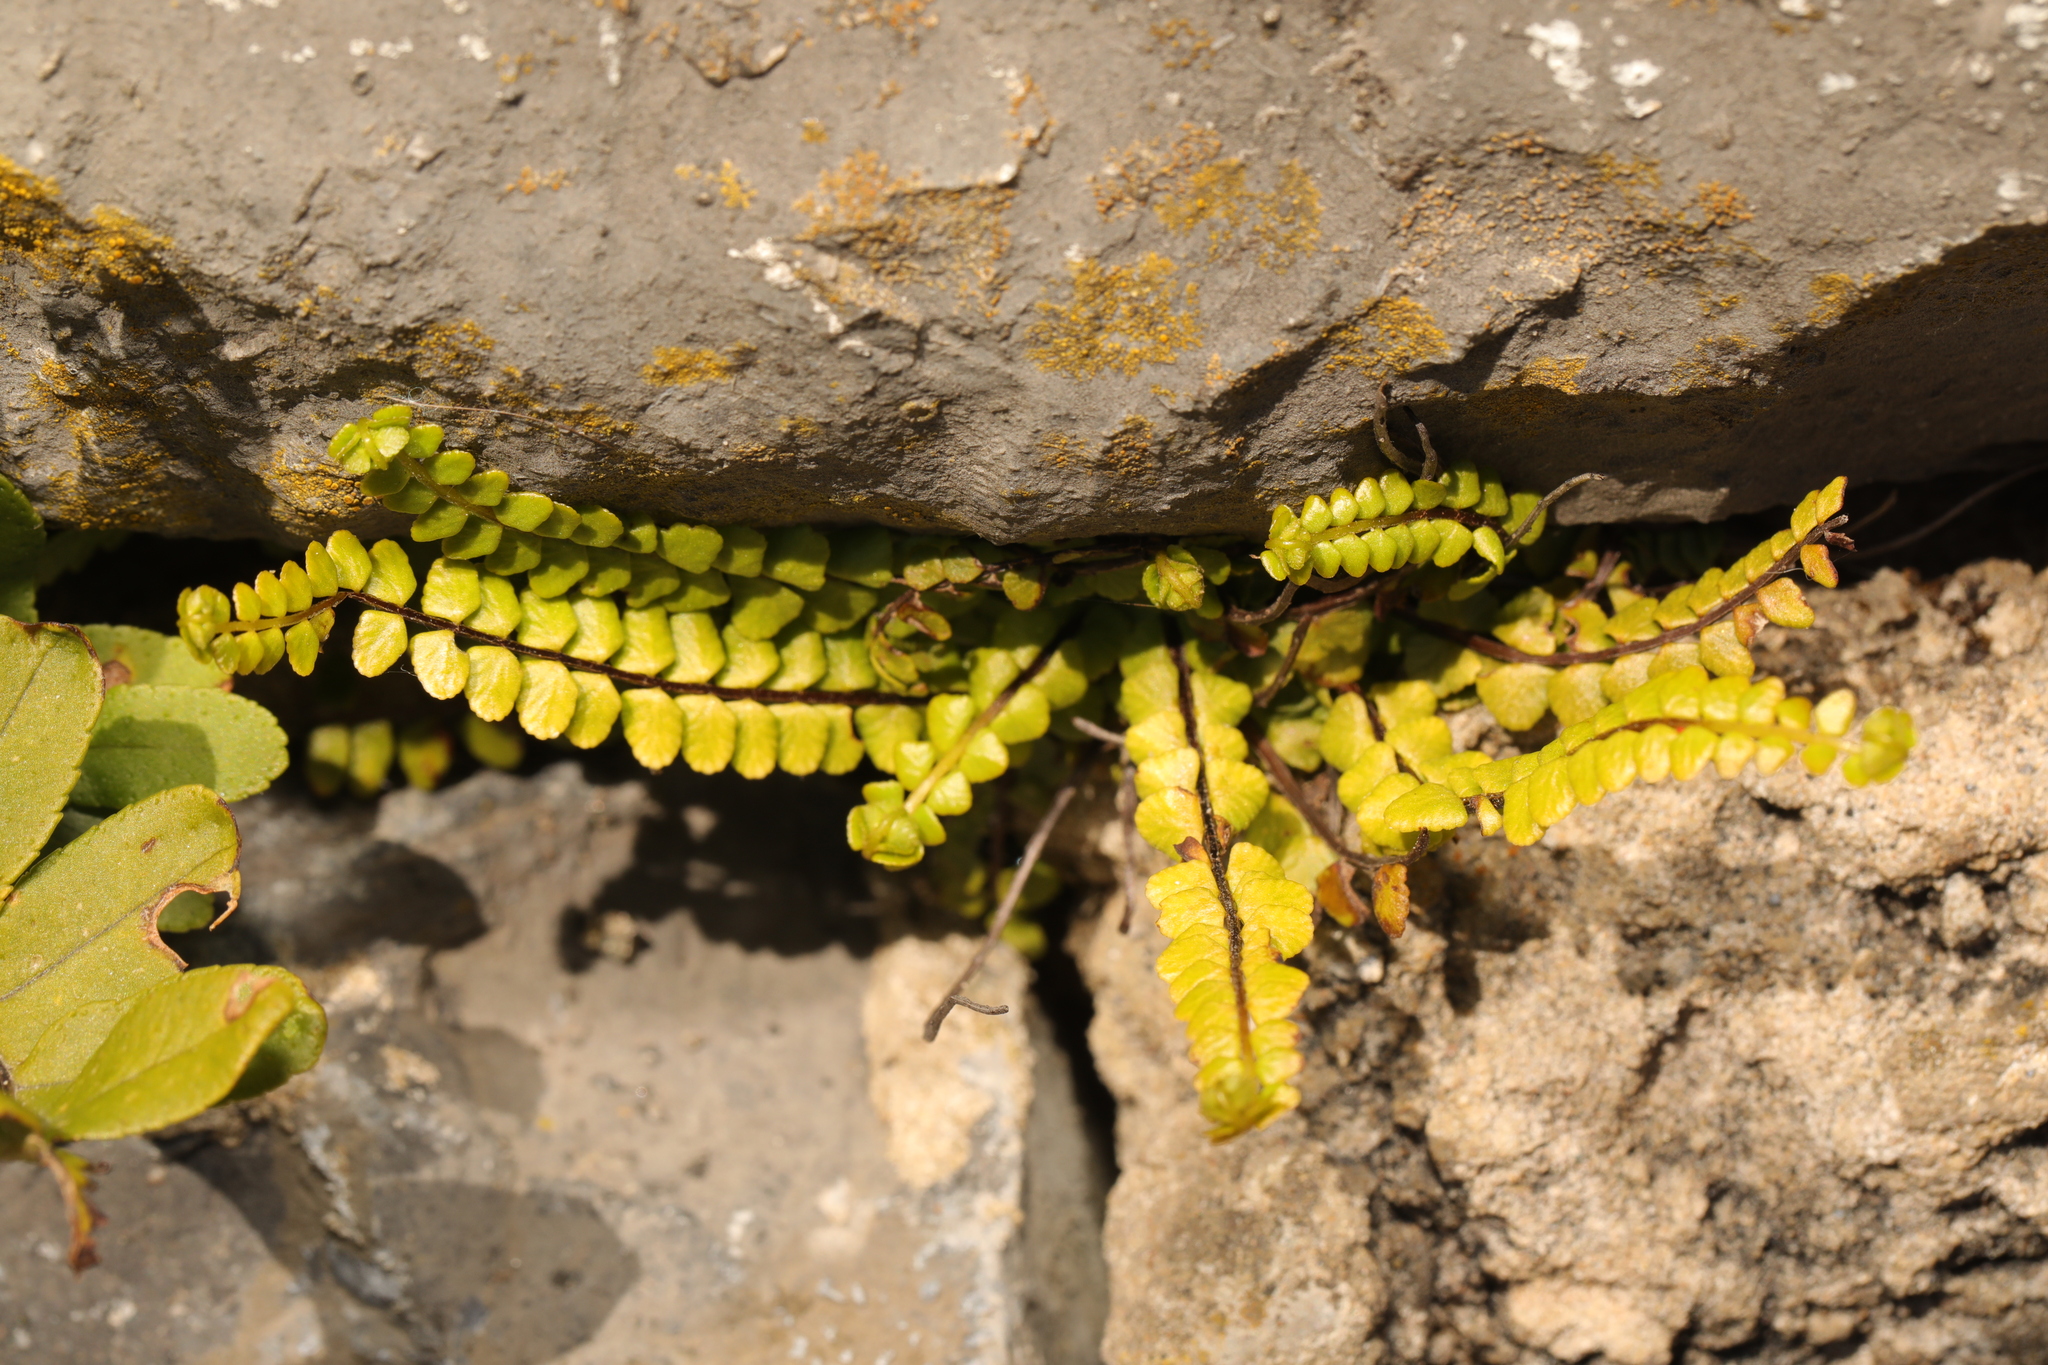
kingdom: Plantae
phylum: Tracheophyta
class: Polypodiopsida
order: Polypodiales
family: Aspleniaceae
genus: Asplenium
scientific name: Asplenium trichomanes
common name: Maidenhair spleenwort
